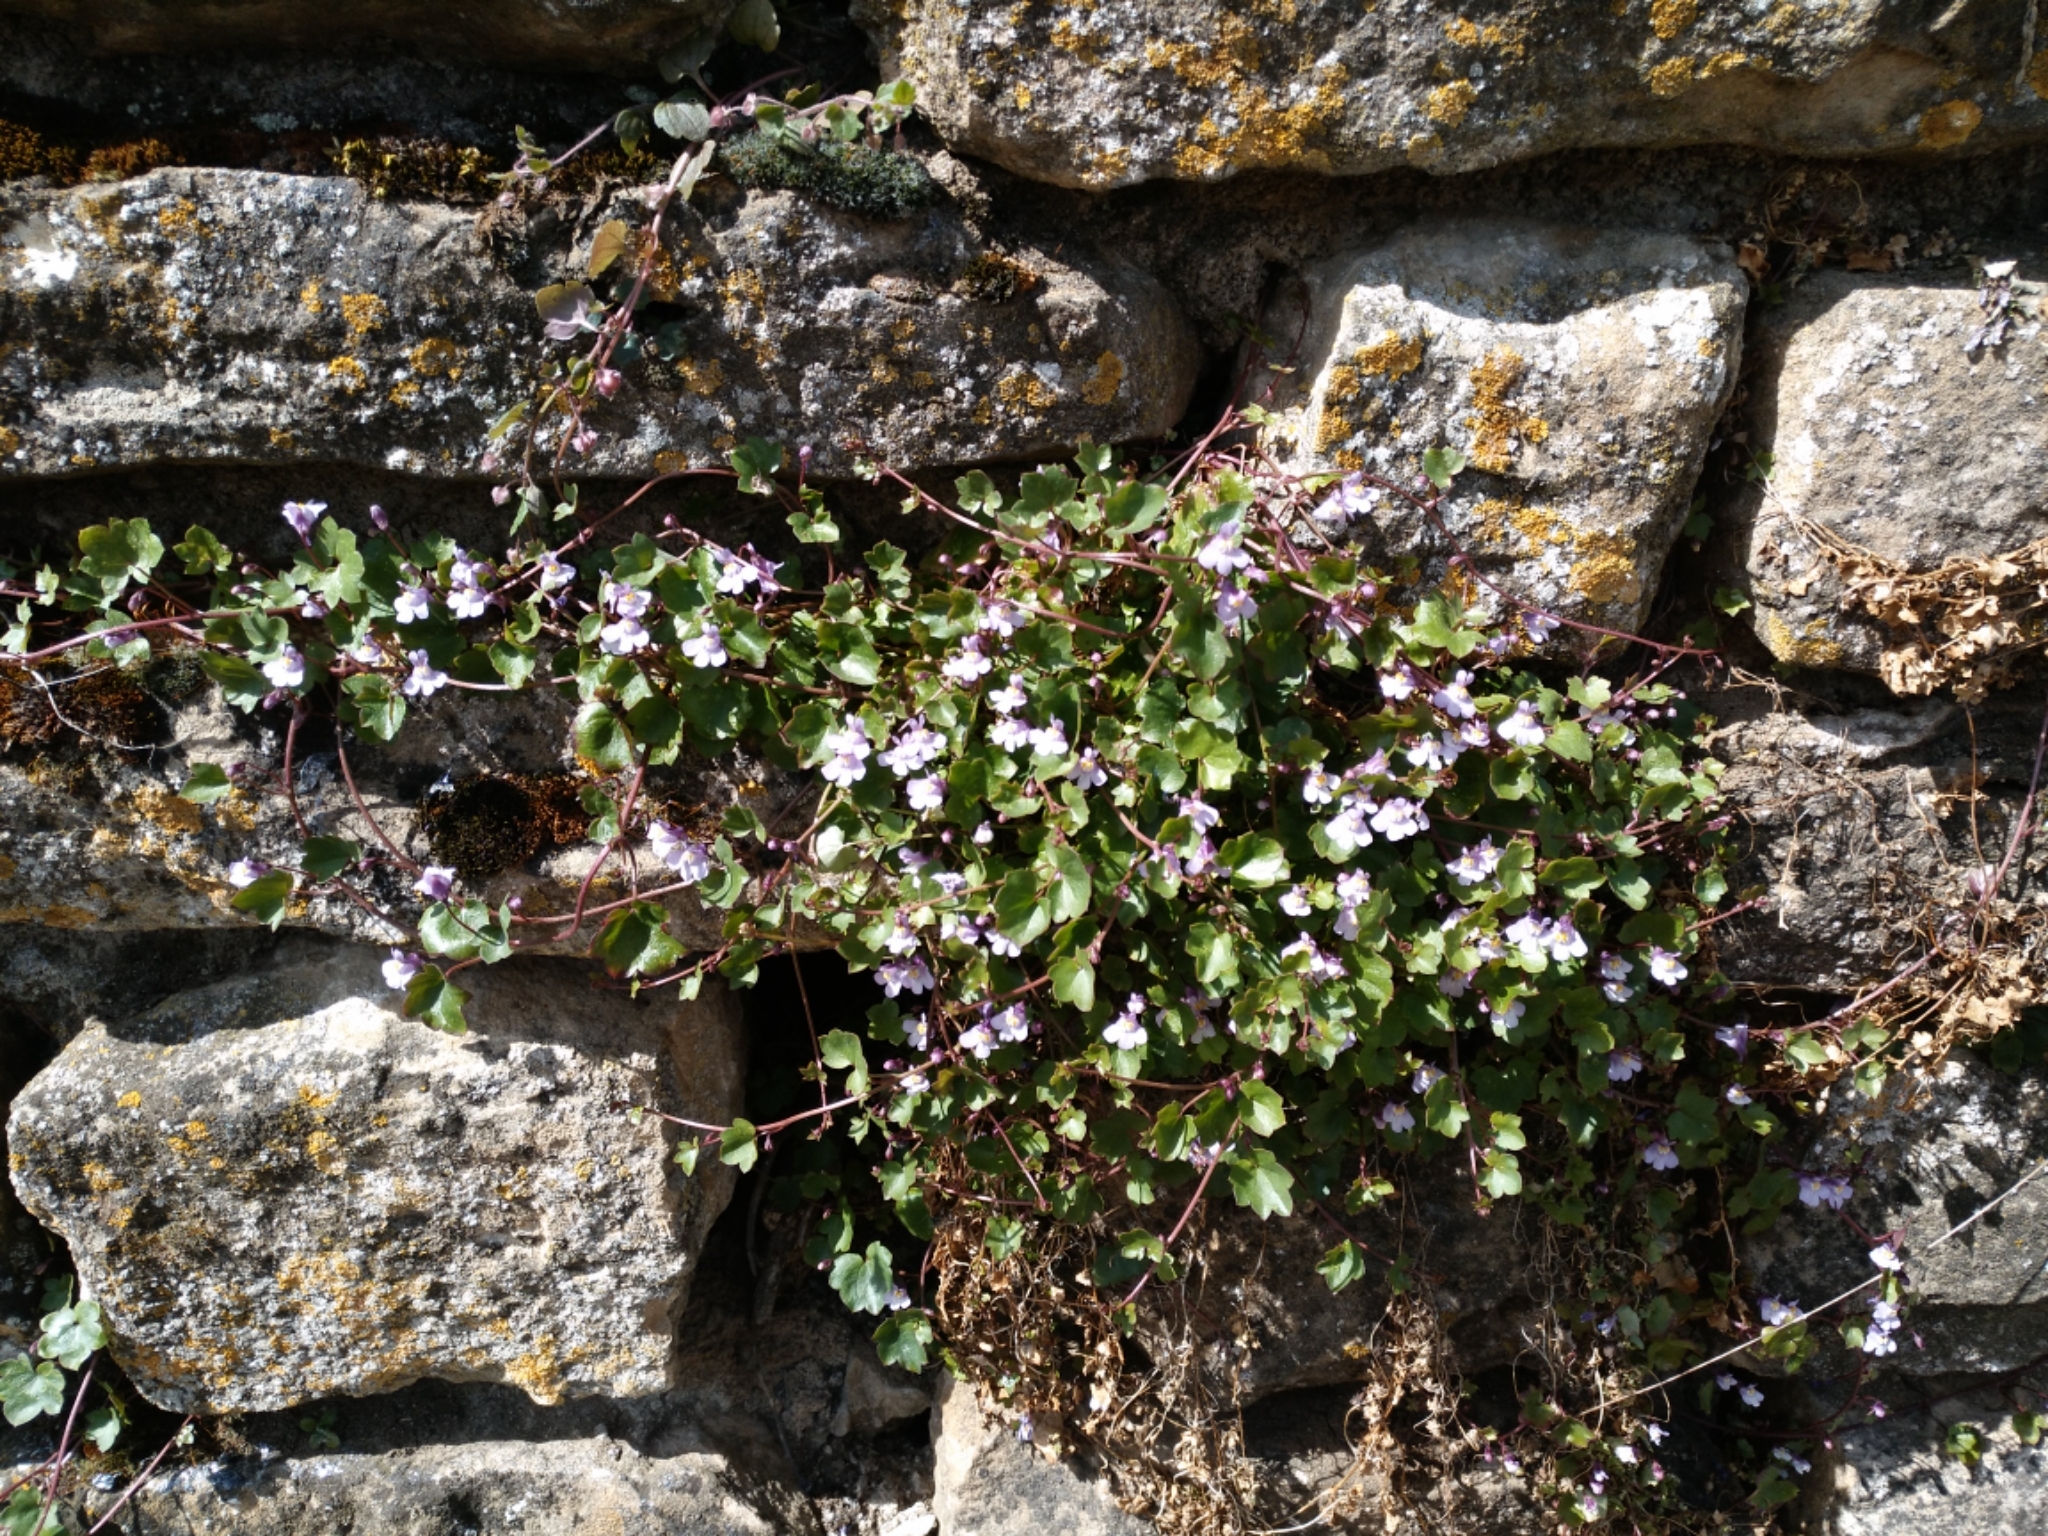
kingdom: Plantae
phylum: Tracheophyta
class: Magnoliopsida
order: Lamiales
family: Plantaginaceae
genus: Cymbalaria
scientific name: Cymbalaria muralis
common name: Ivy-leaved toadflax
